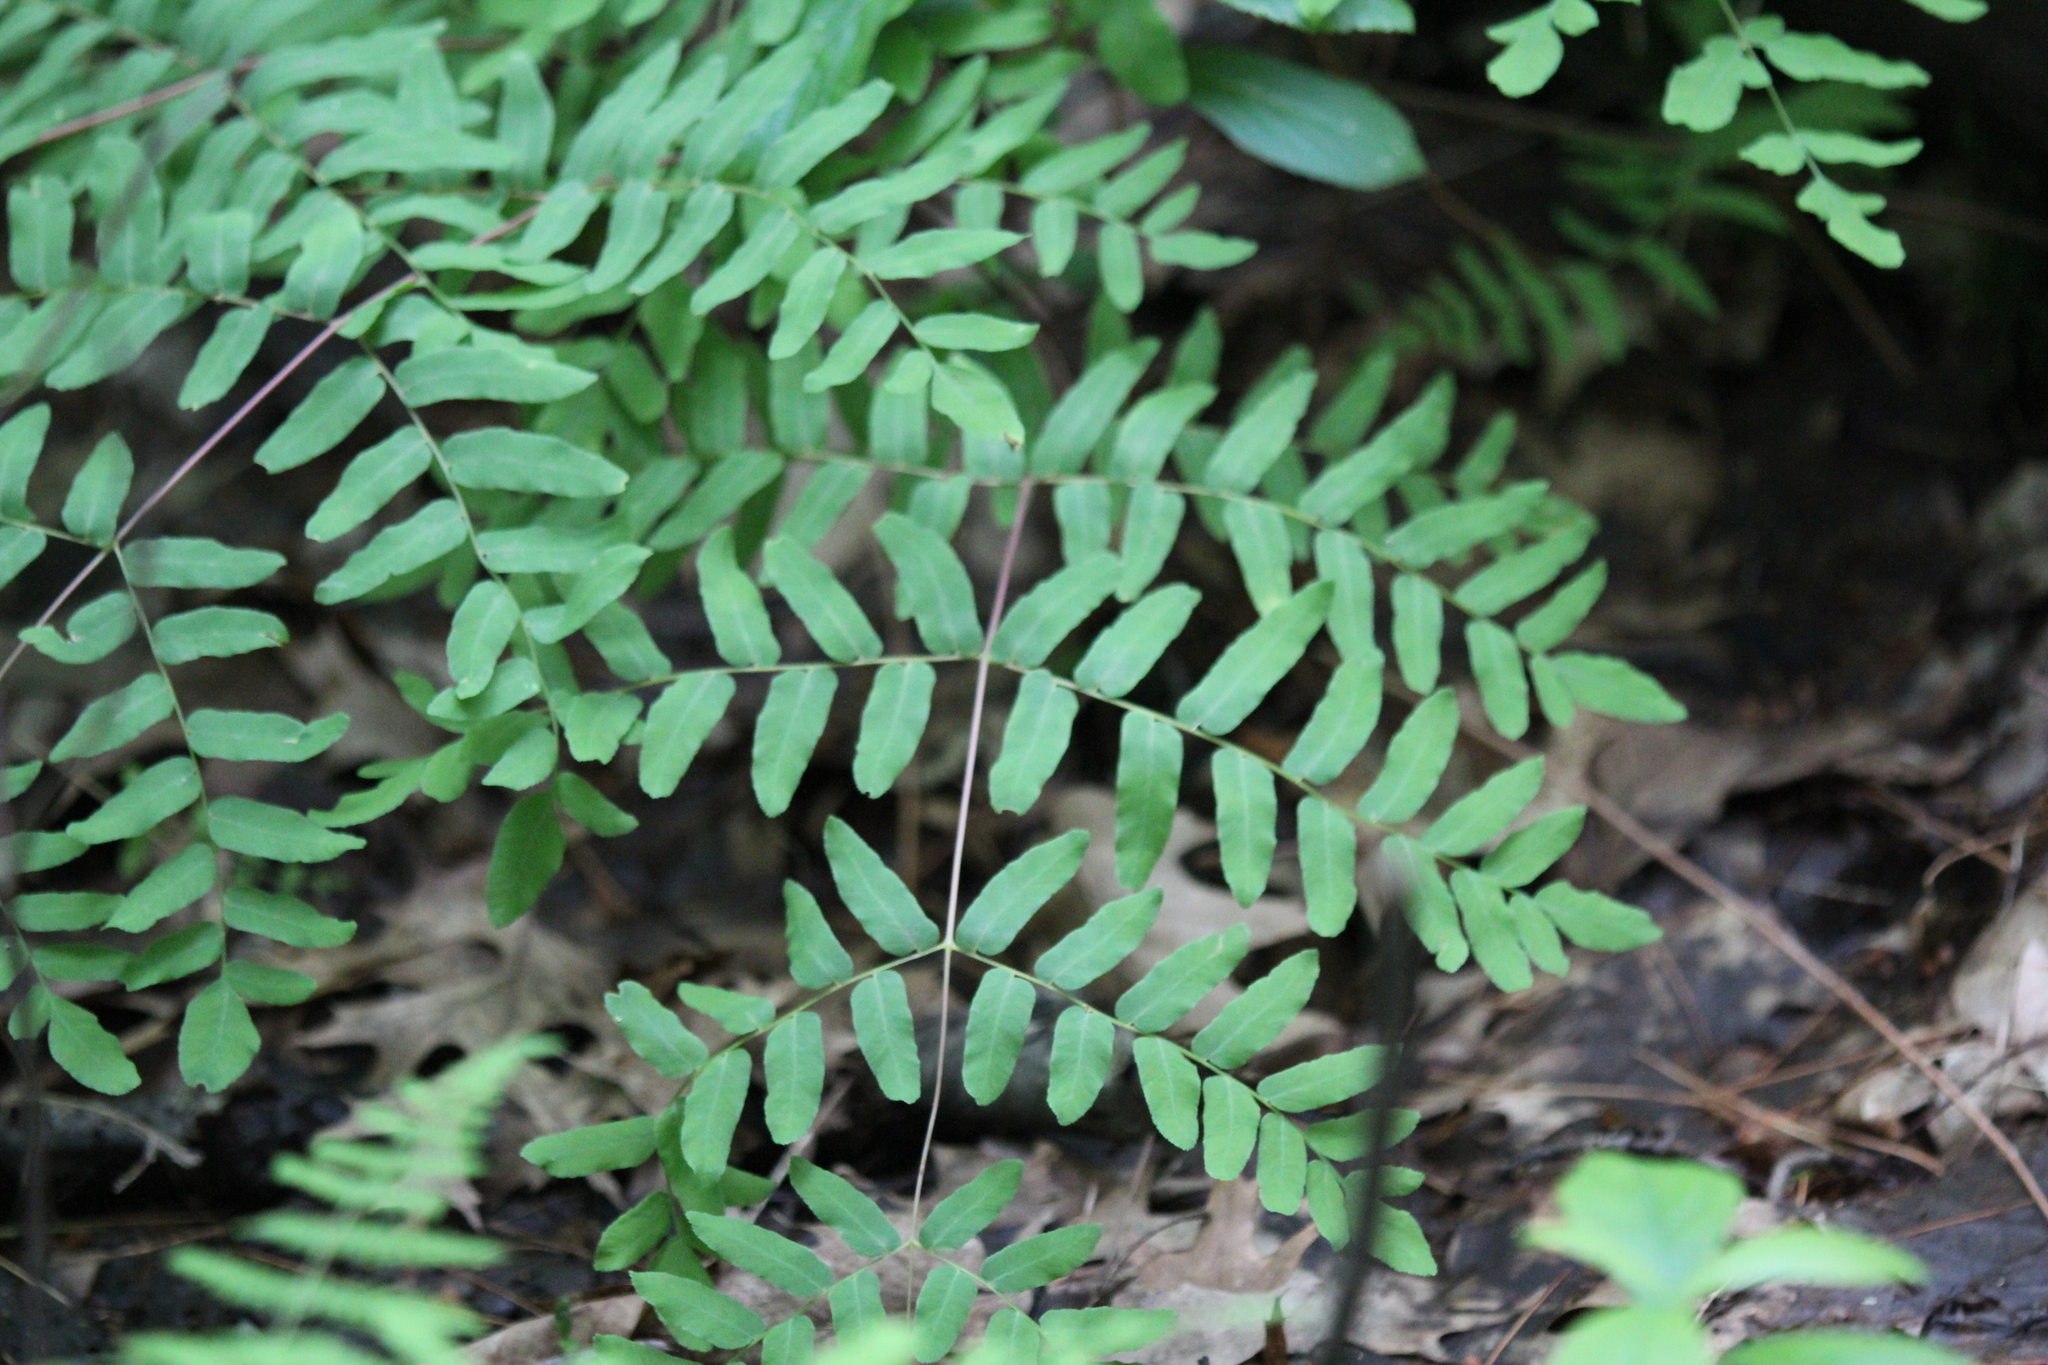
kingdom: Plantae
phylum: Tracheophyta
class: Polypodiopsida
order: Osmundales
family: Osmundaceae
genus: Osmunda
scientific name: Osmunda spectabilis
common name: American royal fern
